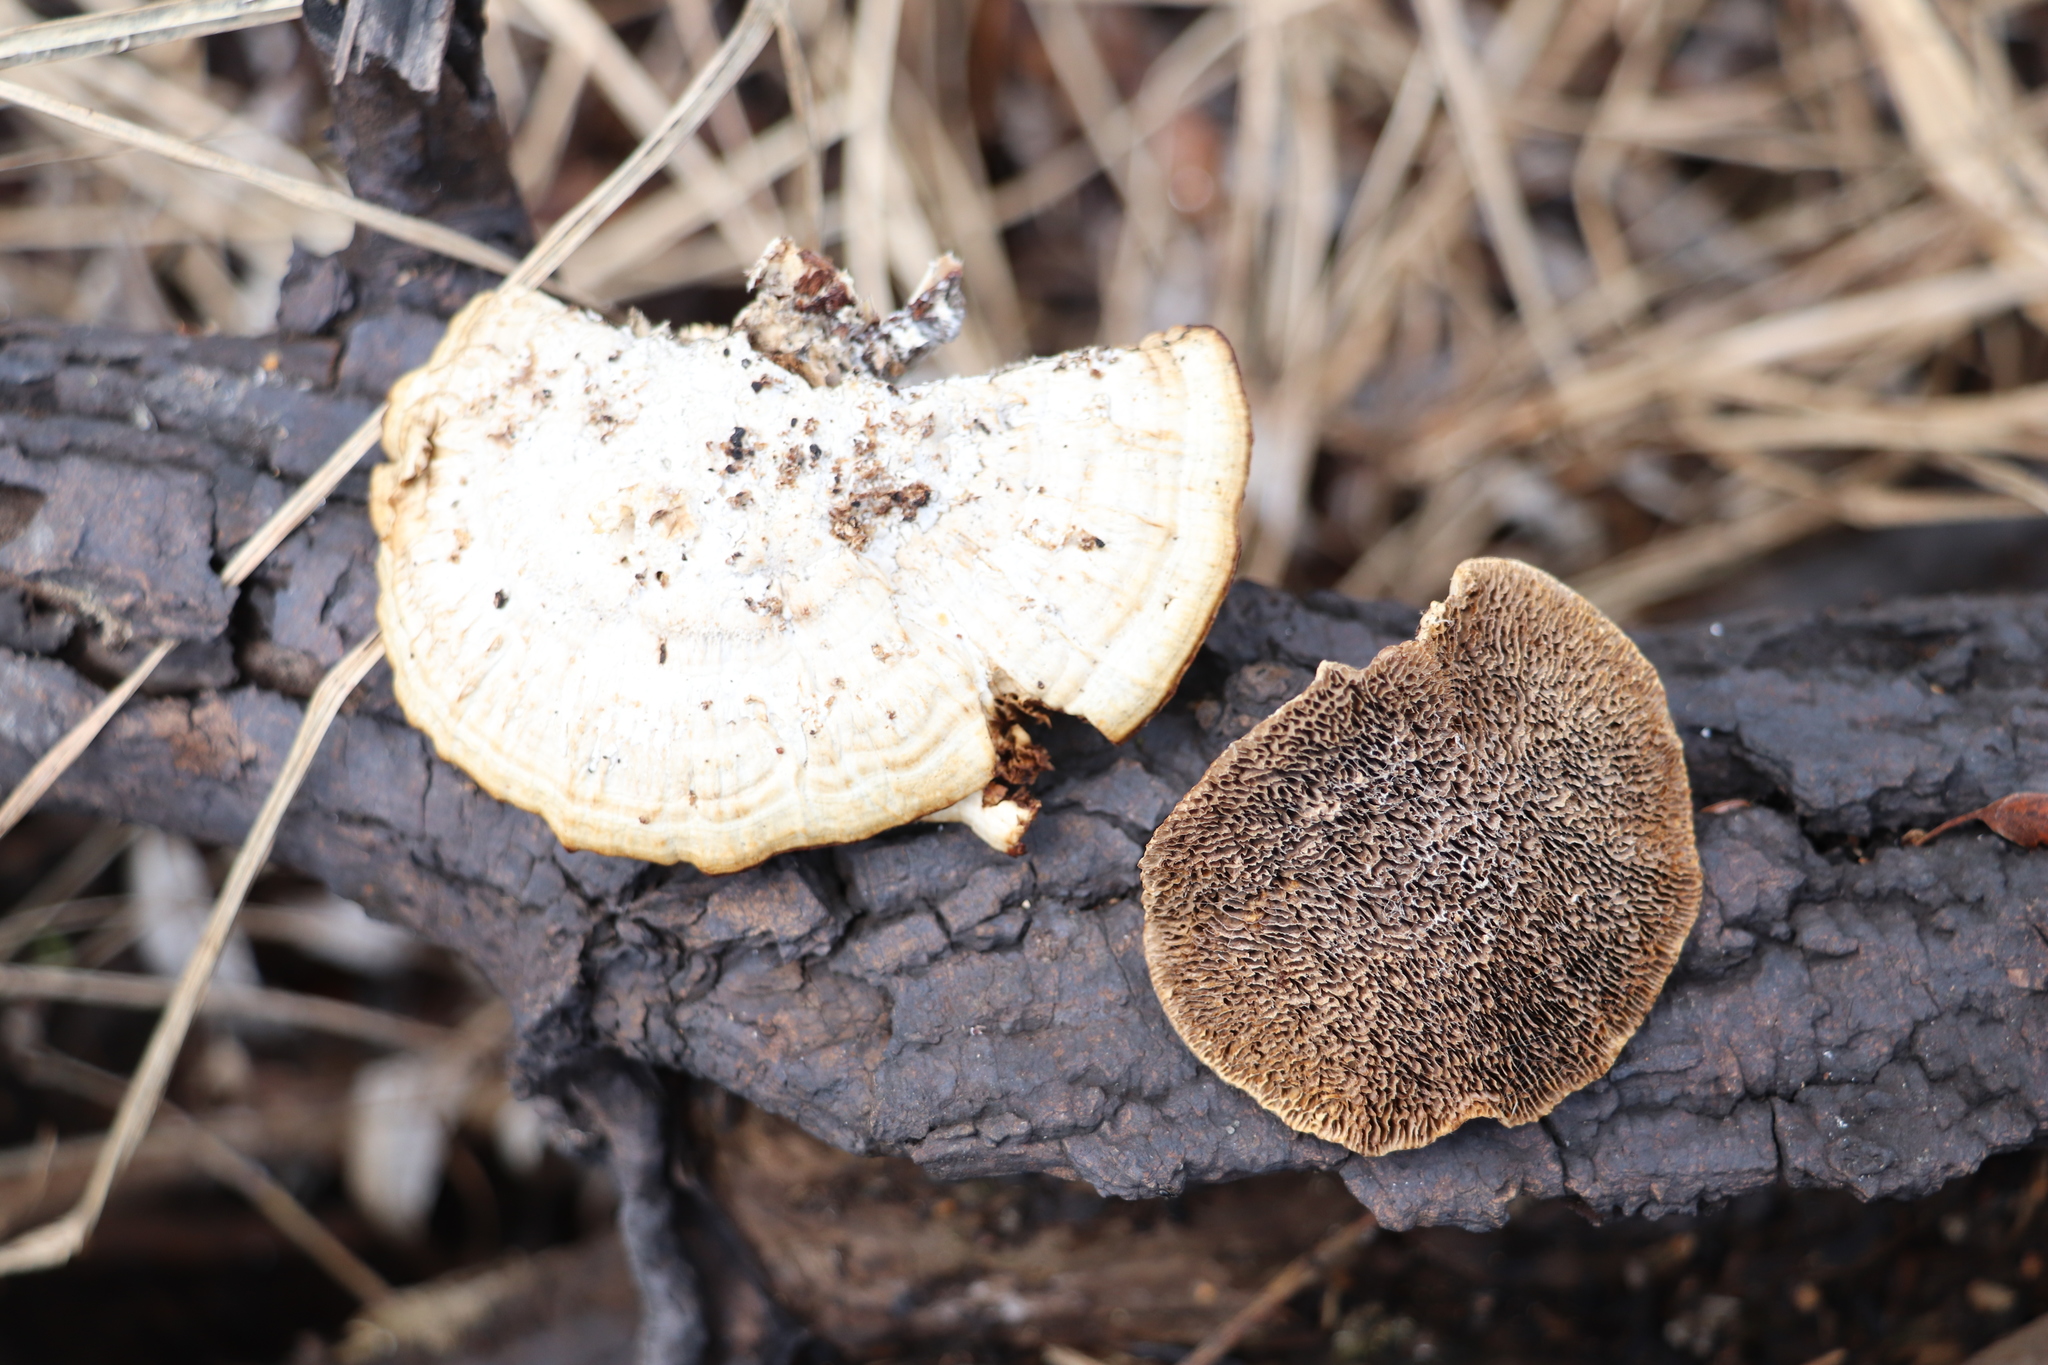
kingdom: Fungi
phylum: Basidiomycota
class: Agaricomycetes
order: Polyporales
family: Polyporaceae
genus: Daedaleopsis
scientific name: Daedaleopsis confragosa
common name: Blushing bracket
